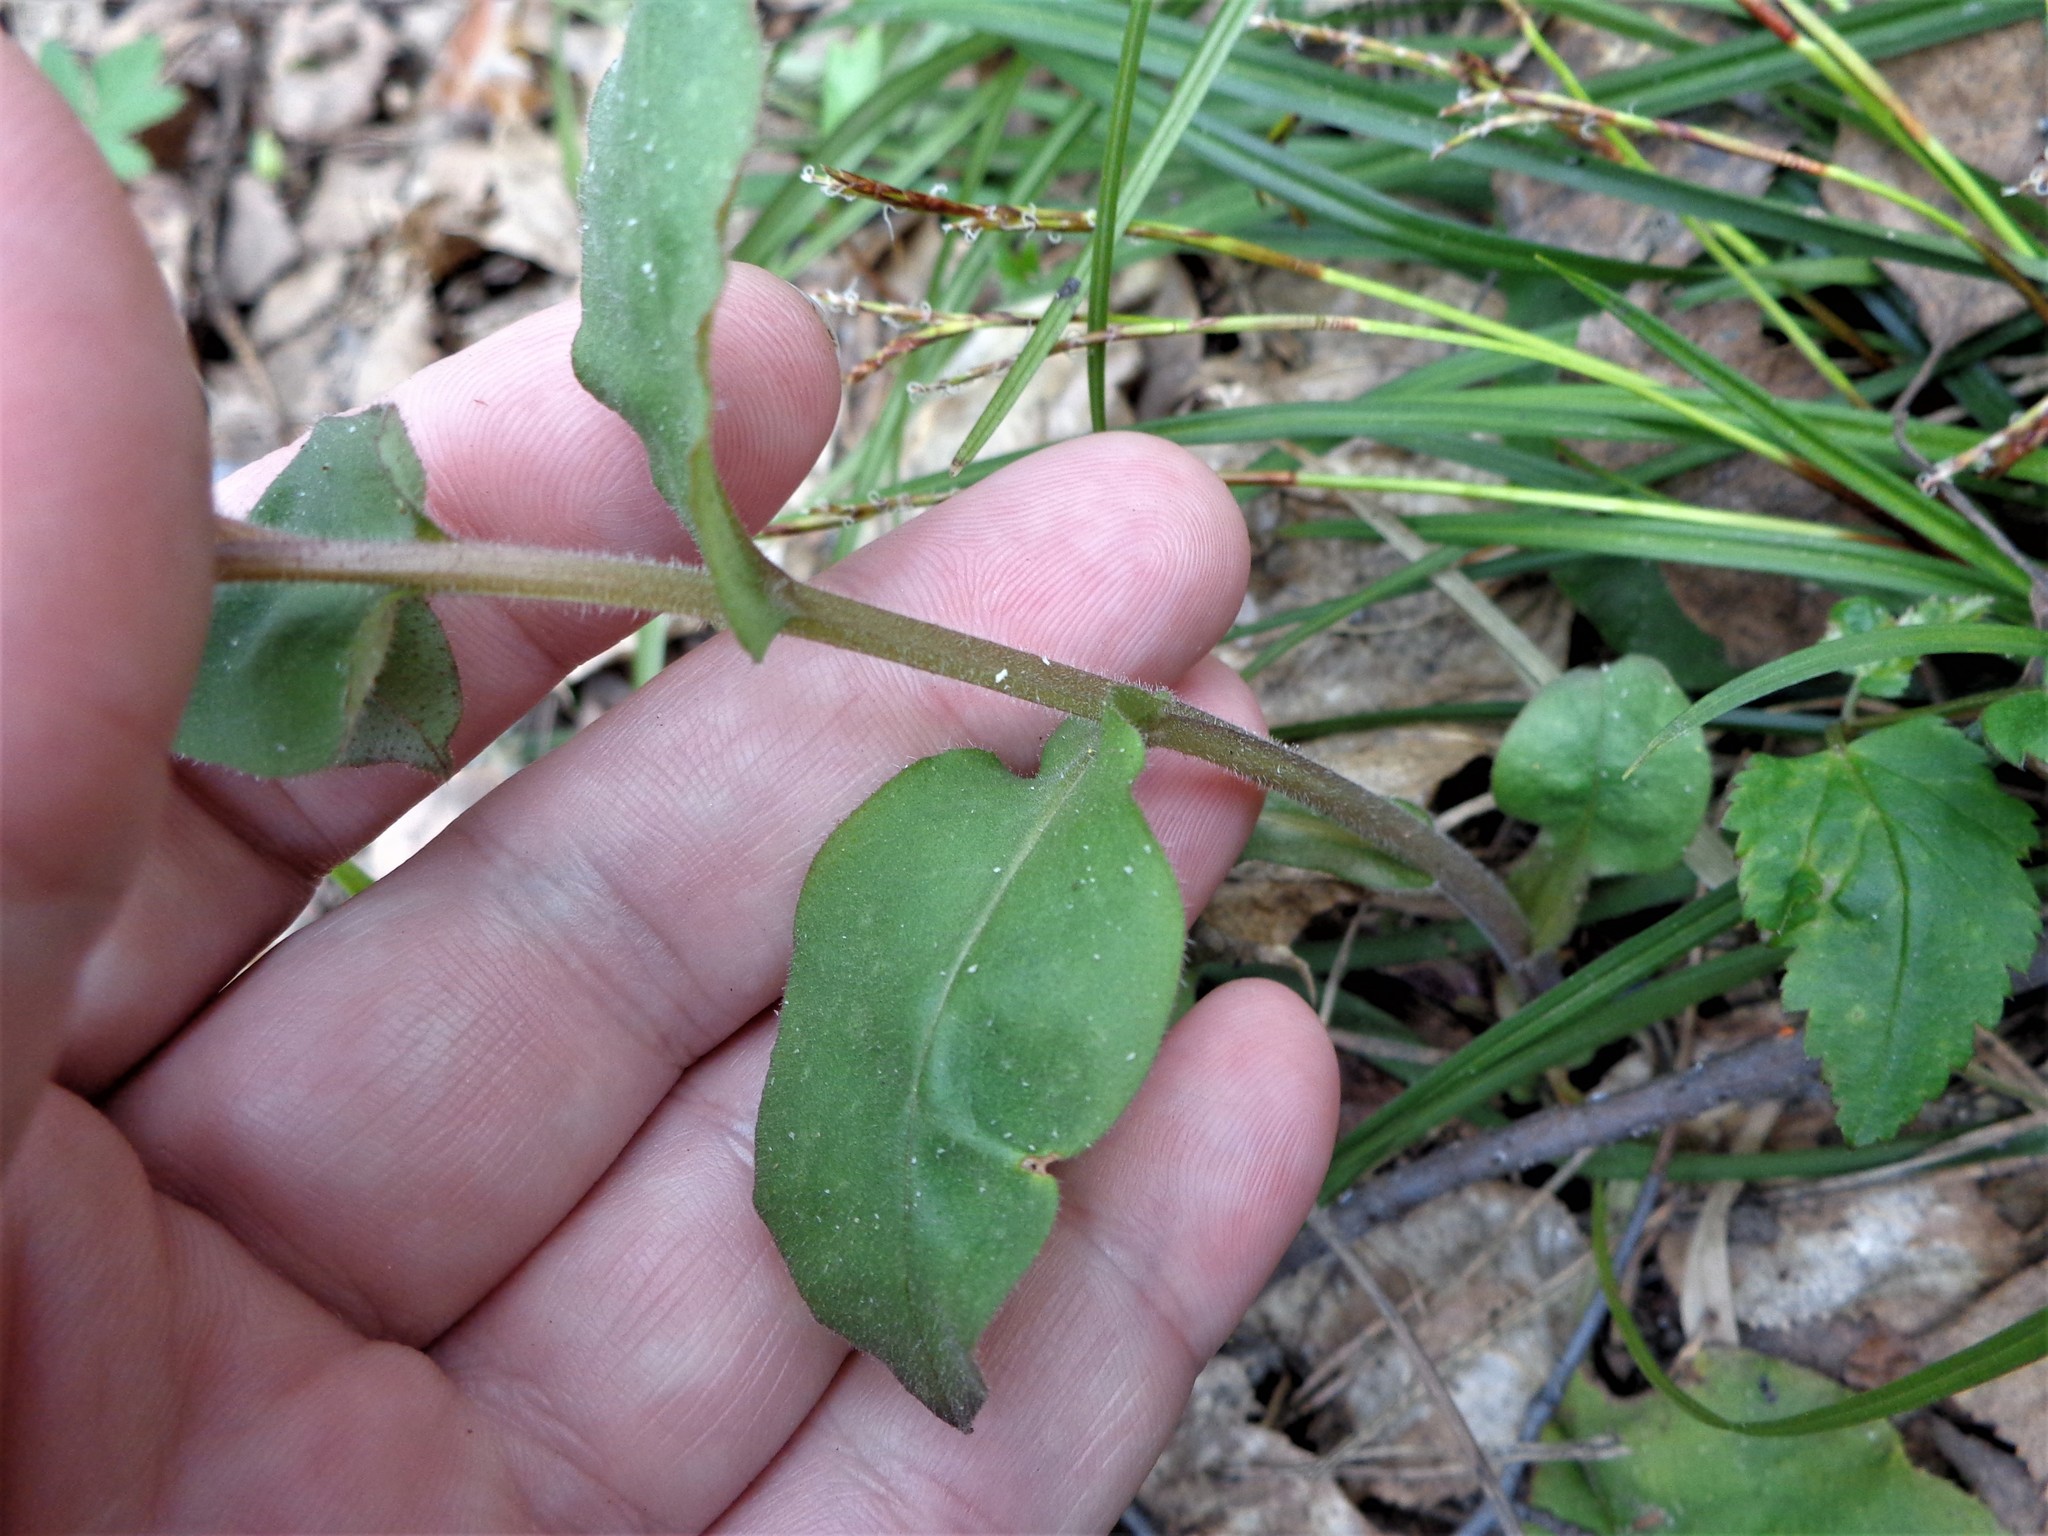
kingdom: Plantae
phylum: Tracheophyta
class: Magnoliopsida
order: Boraginales
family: Boraginaceae
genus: Pulmonaria
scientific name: Pulmonaria obscura
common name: Suffolk lungwort
